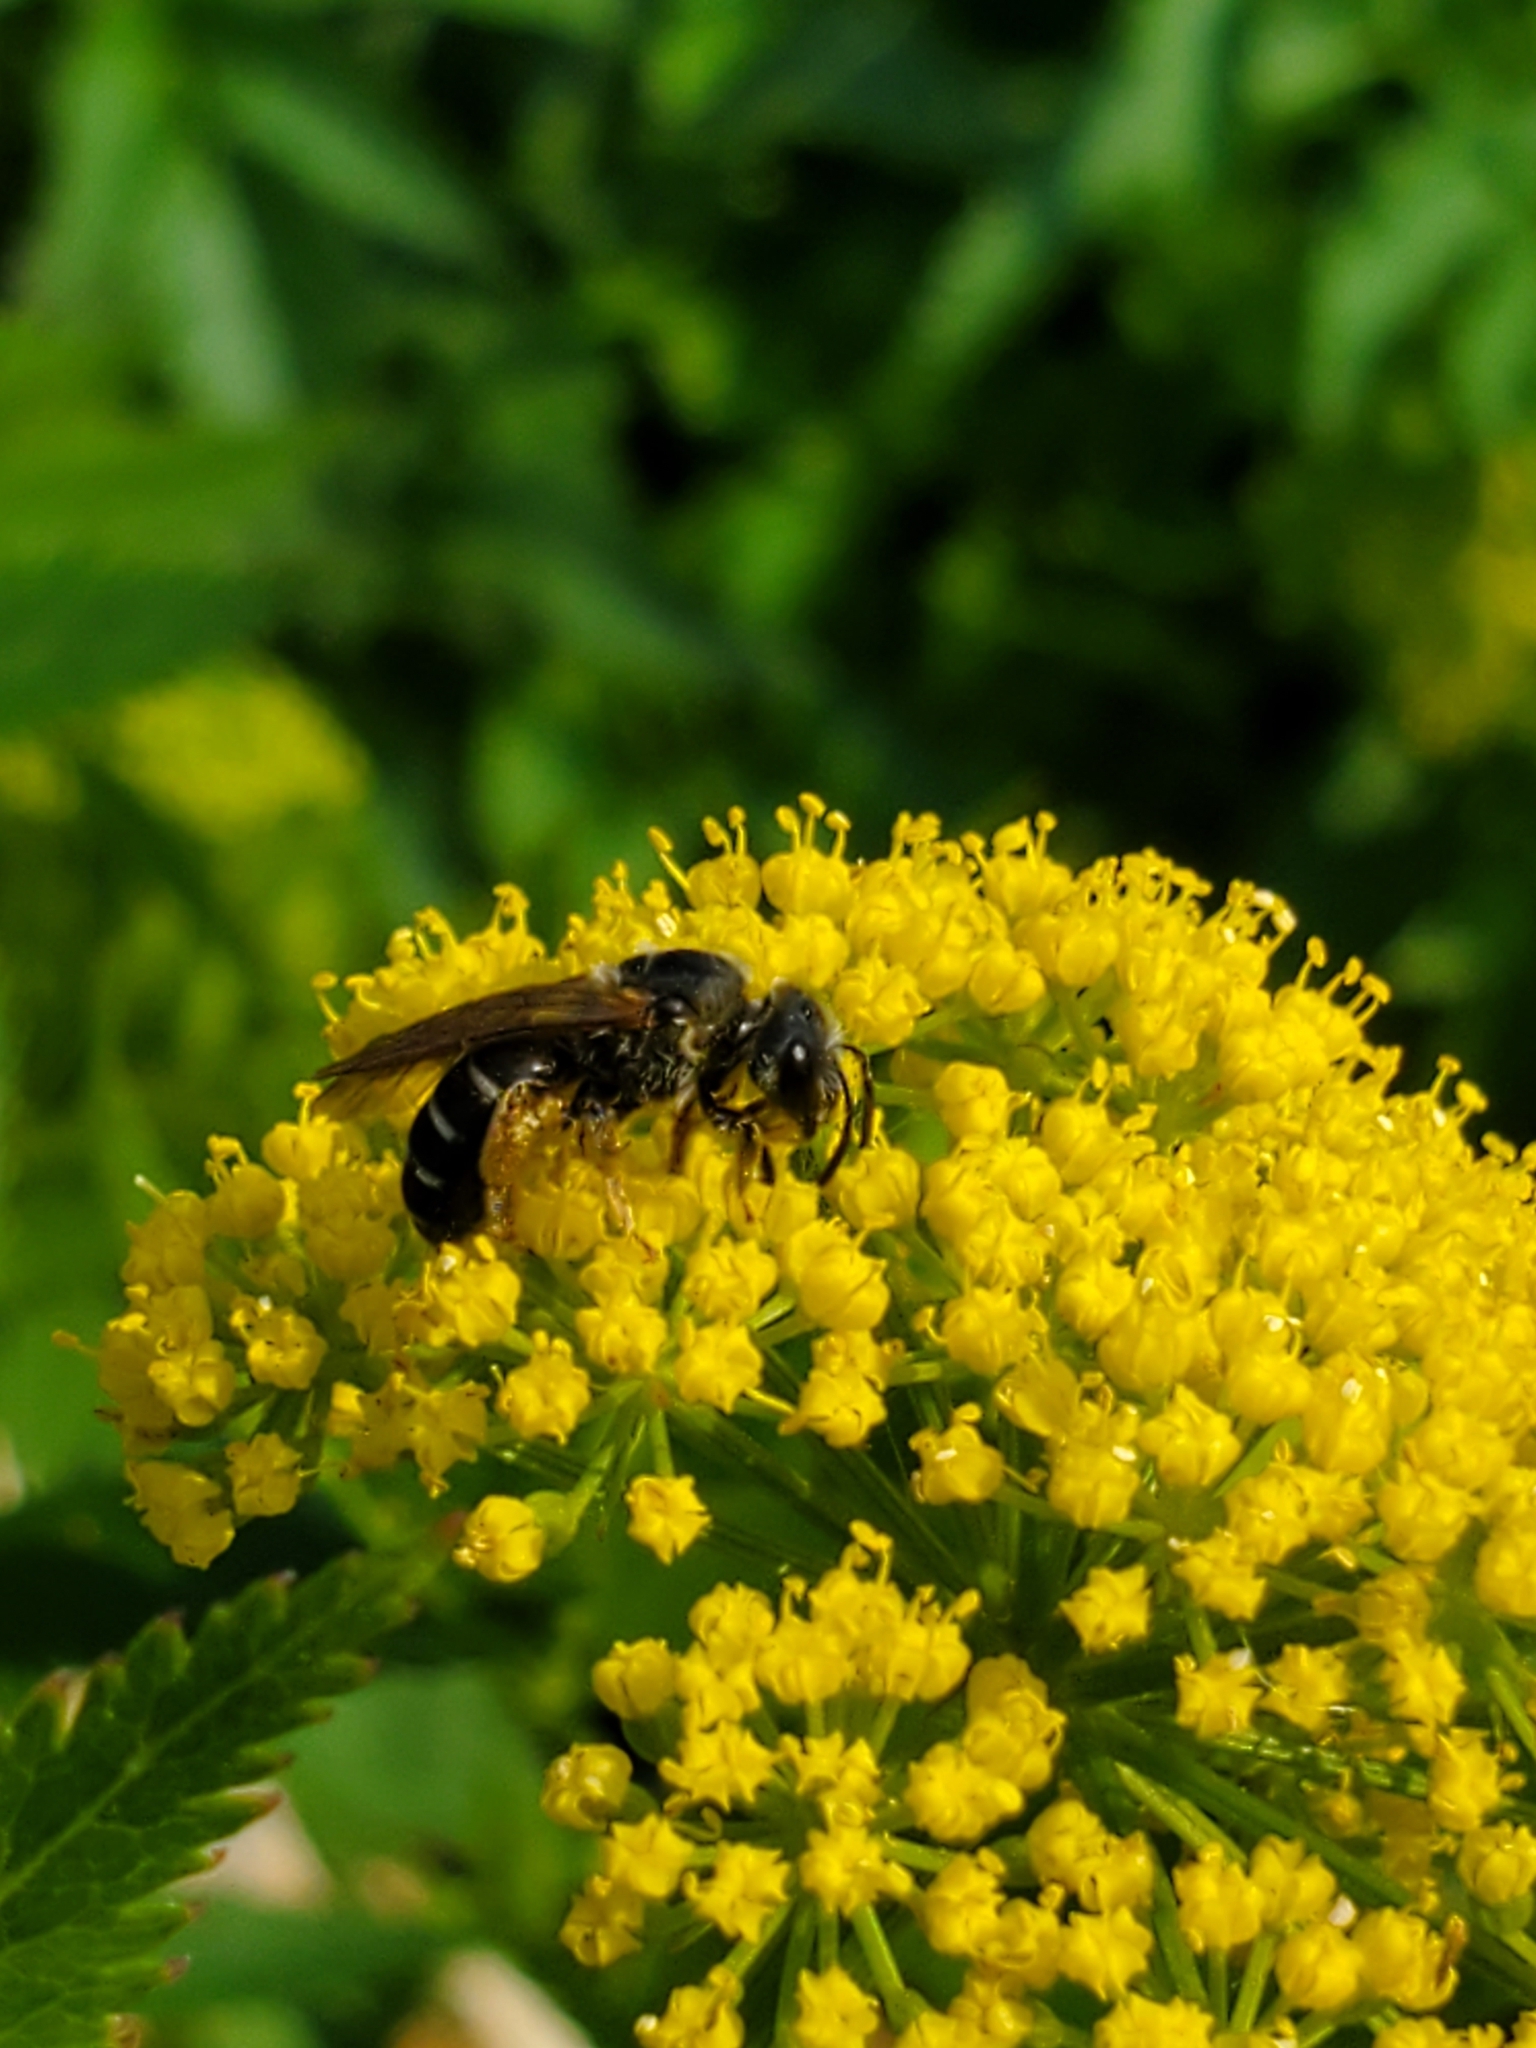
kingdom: Animalia
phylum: Arthropoda
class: Insecta
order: Hymenoptera
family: Halictidae
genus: Halictus
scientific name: Halictus rubicundus
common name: Orange-legged furrow bee
